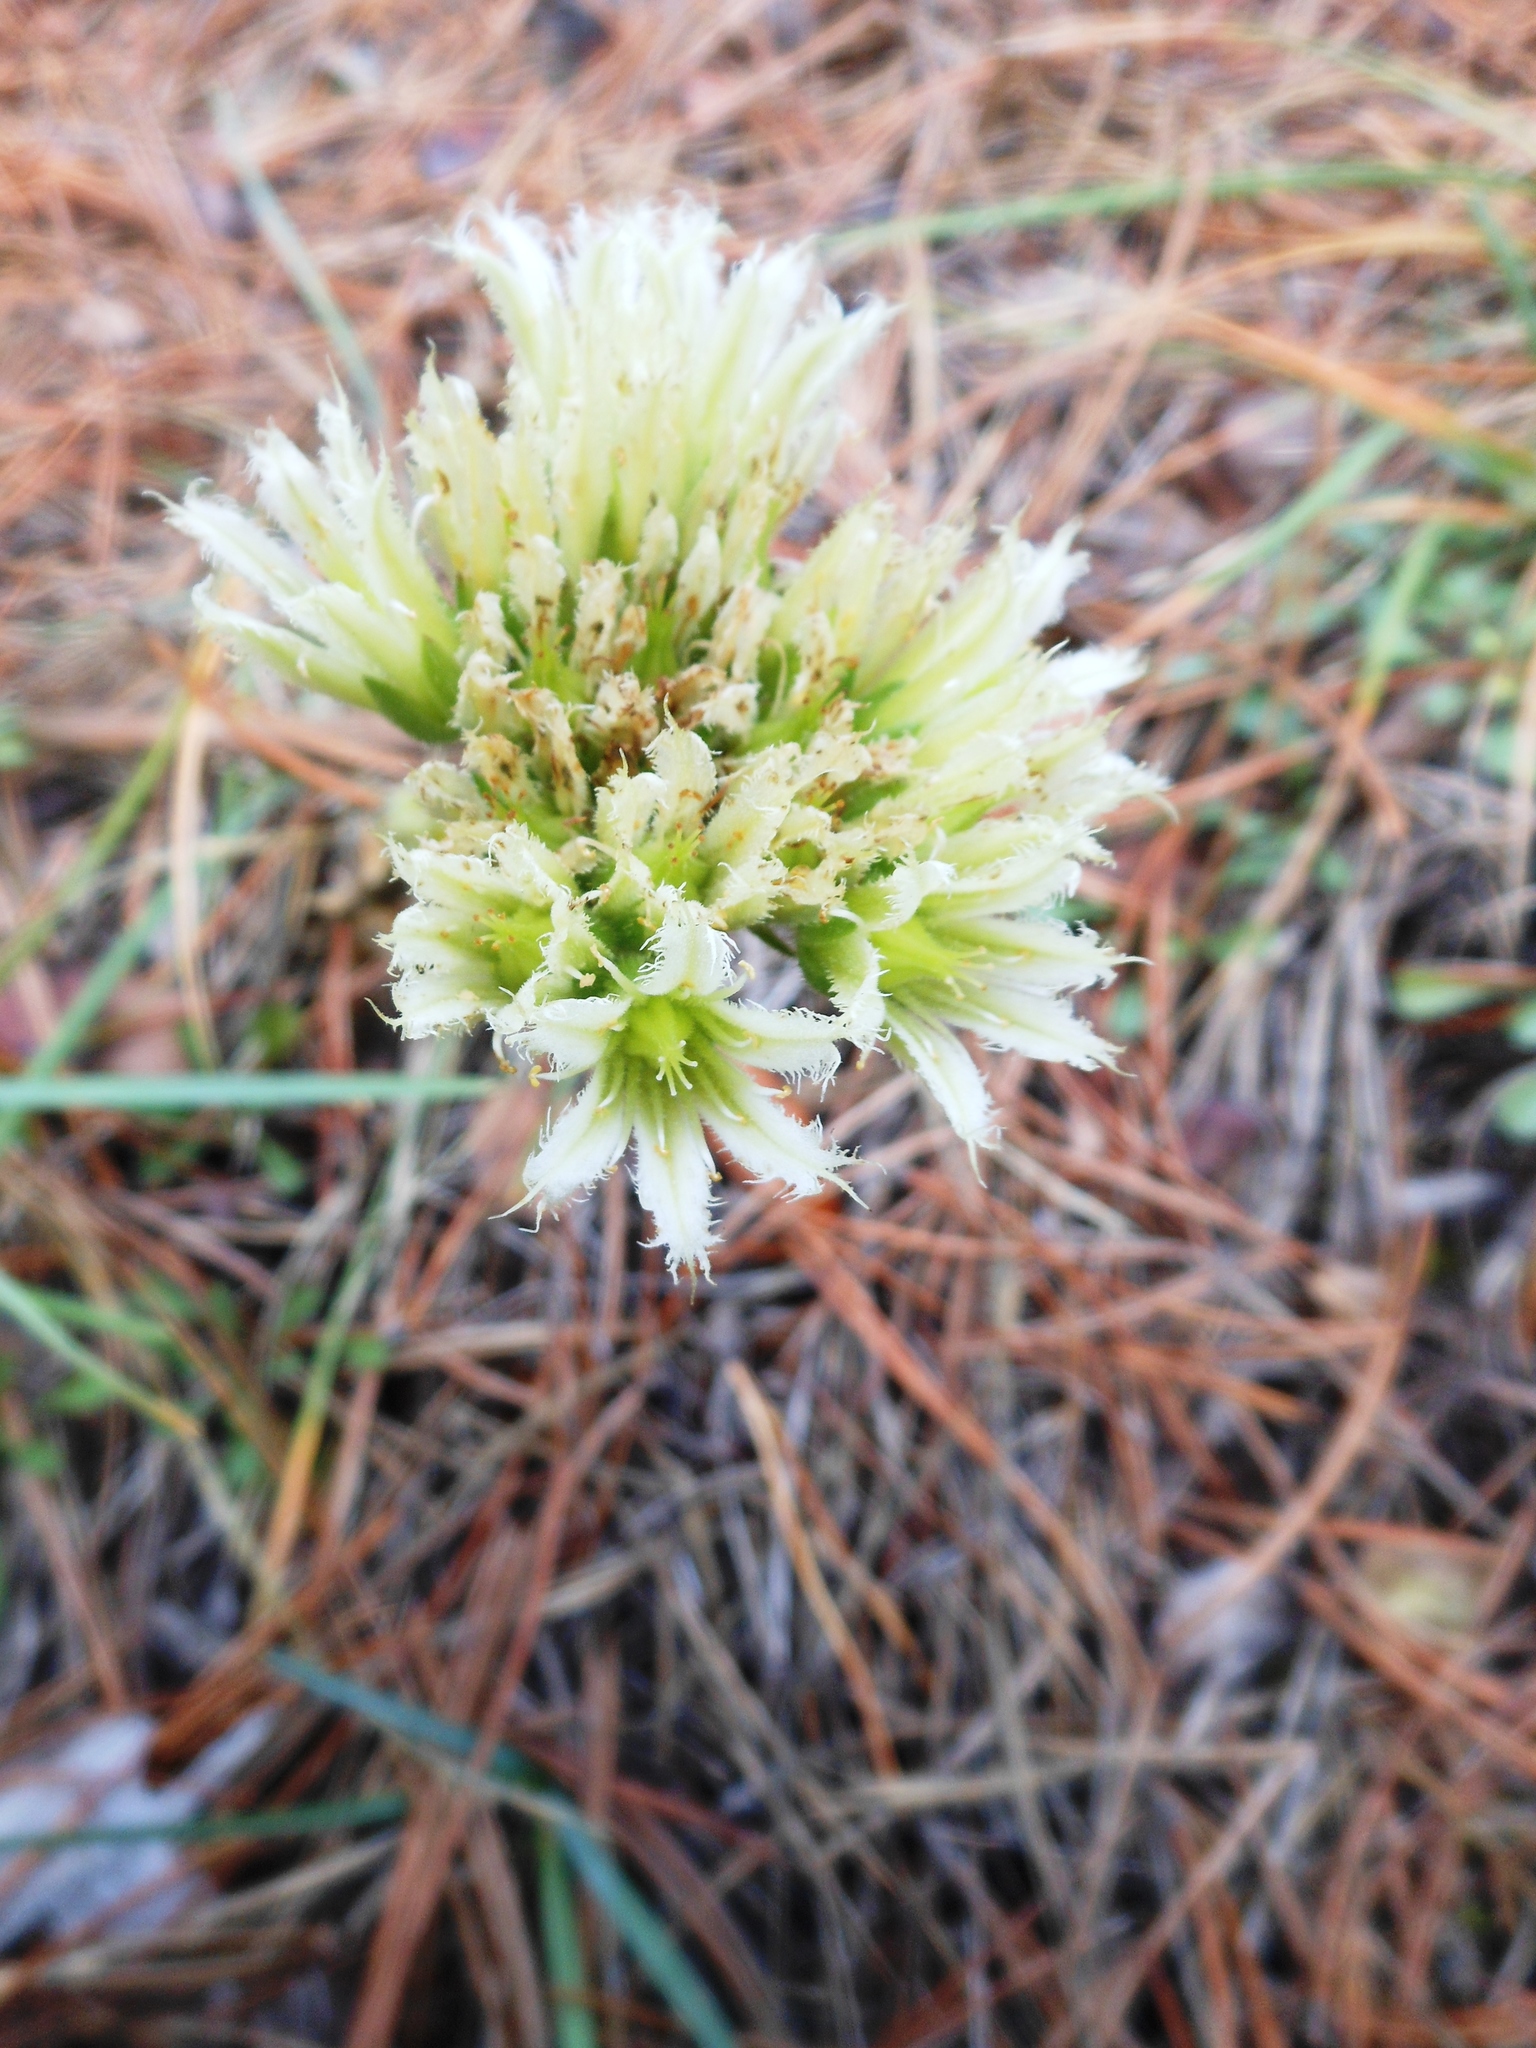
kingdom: Plantae
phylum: Tracheophyta
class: Magnoliopsida
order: Saxifragales
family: Crassulaceae
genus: Sempervivum
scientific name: Sempervivum globiferum
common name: Rolling hen-and-chicks
